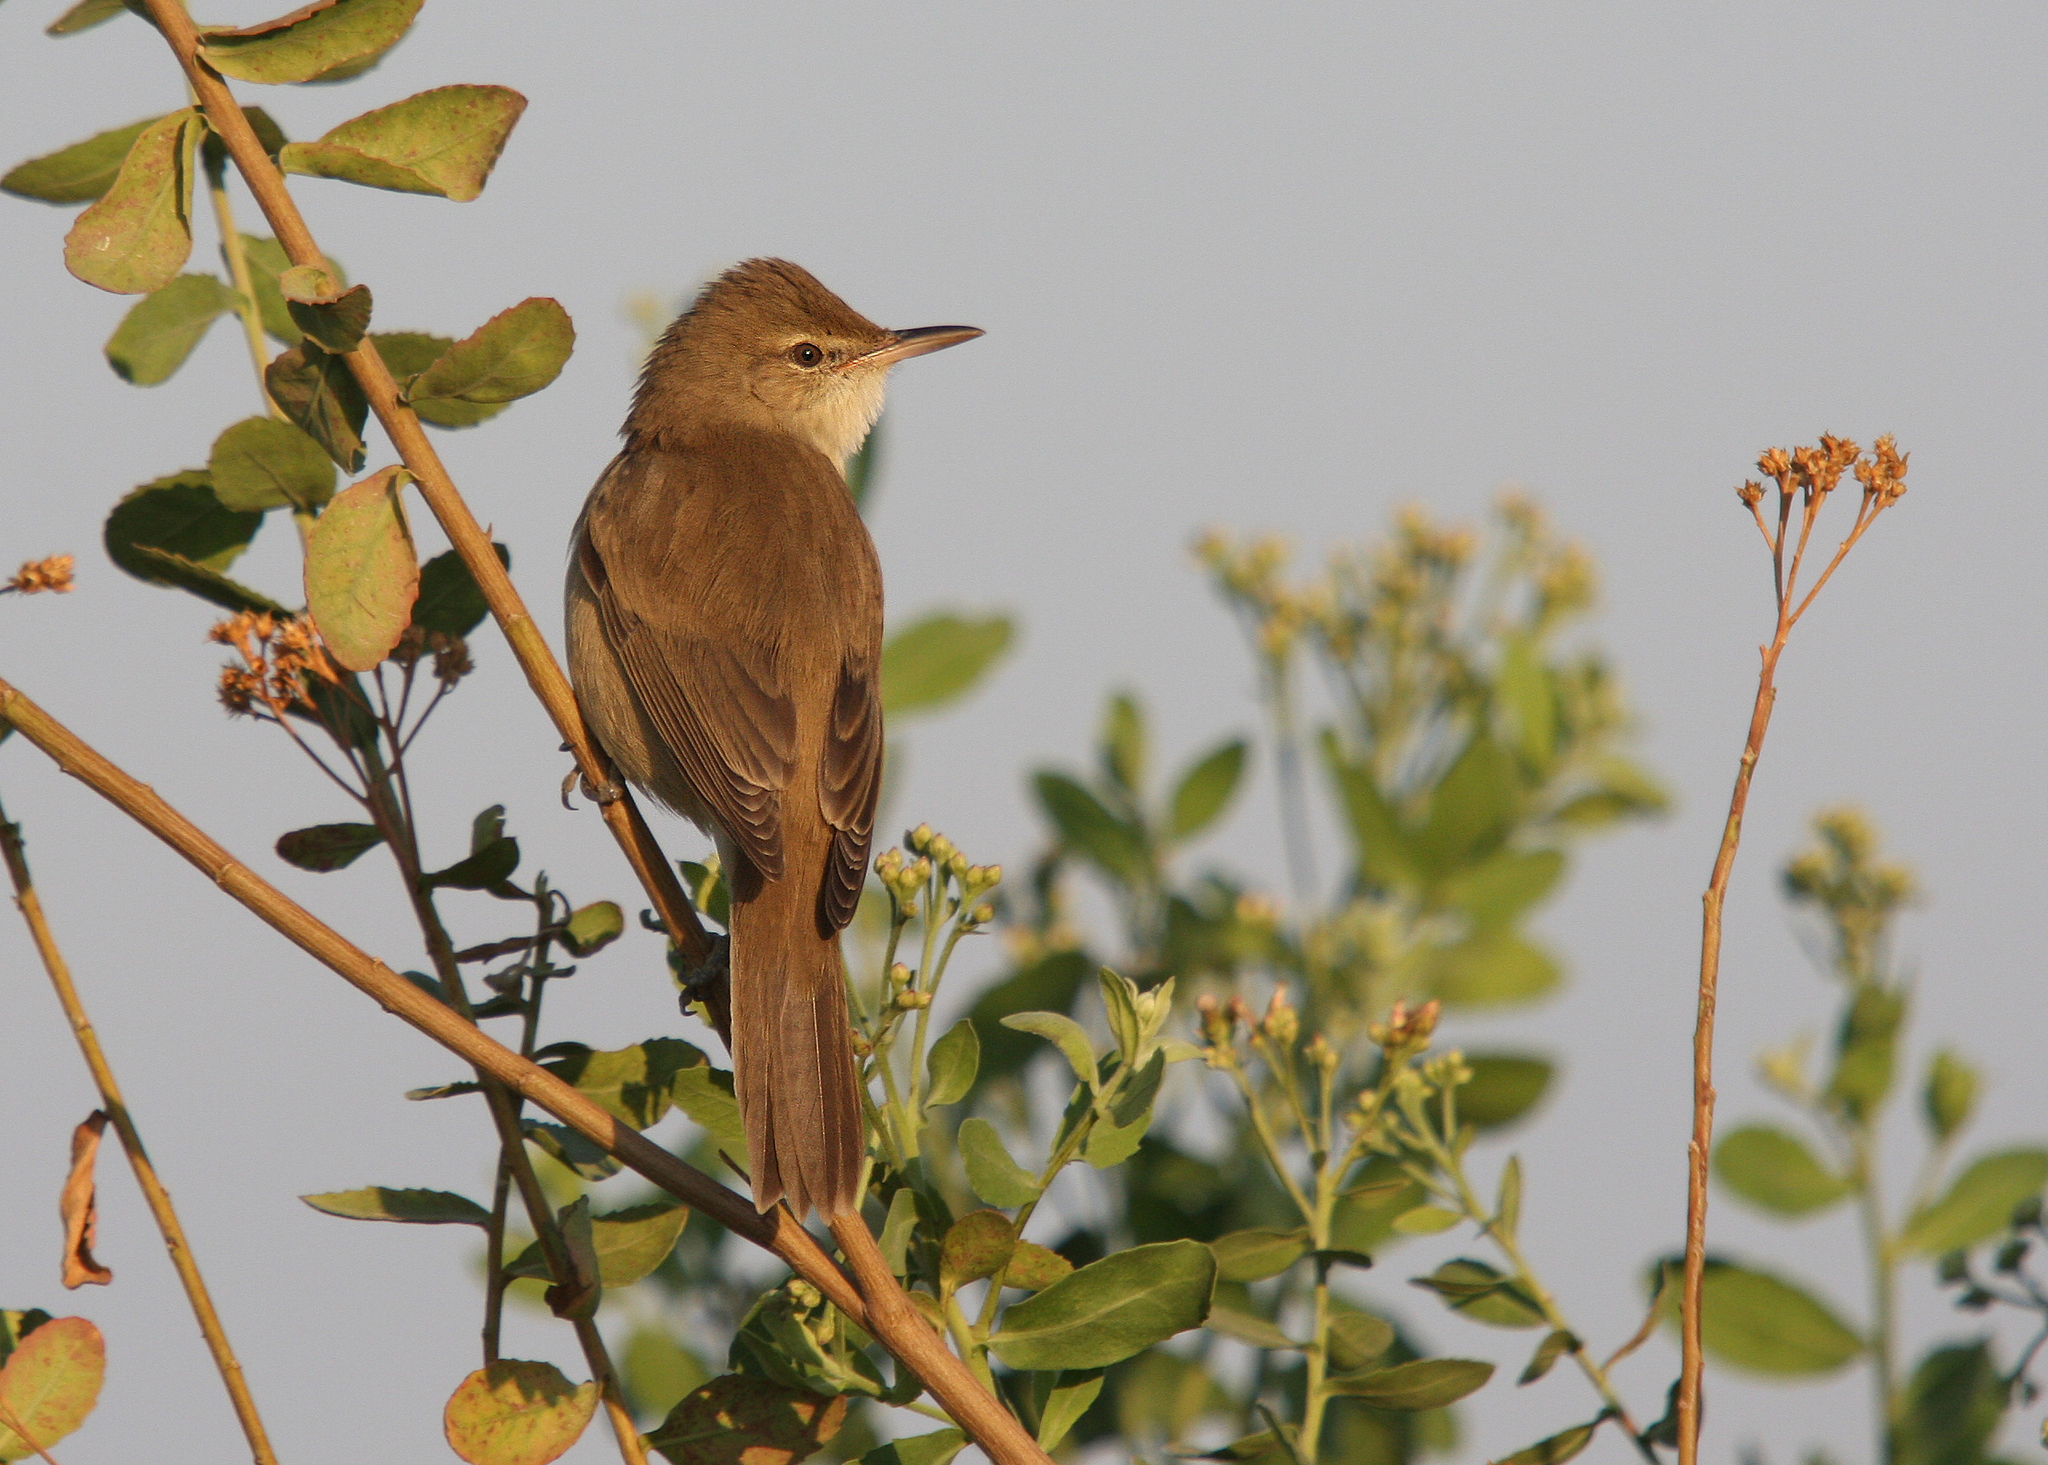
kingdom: Animalia
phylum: Chordata
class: Aves
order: Passeriformes
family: Acrocephalidae
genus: Acrocephalus
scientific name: Acrocephalus stentoreus
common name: Clamorous reed warbler
